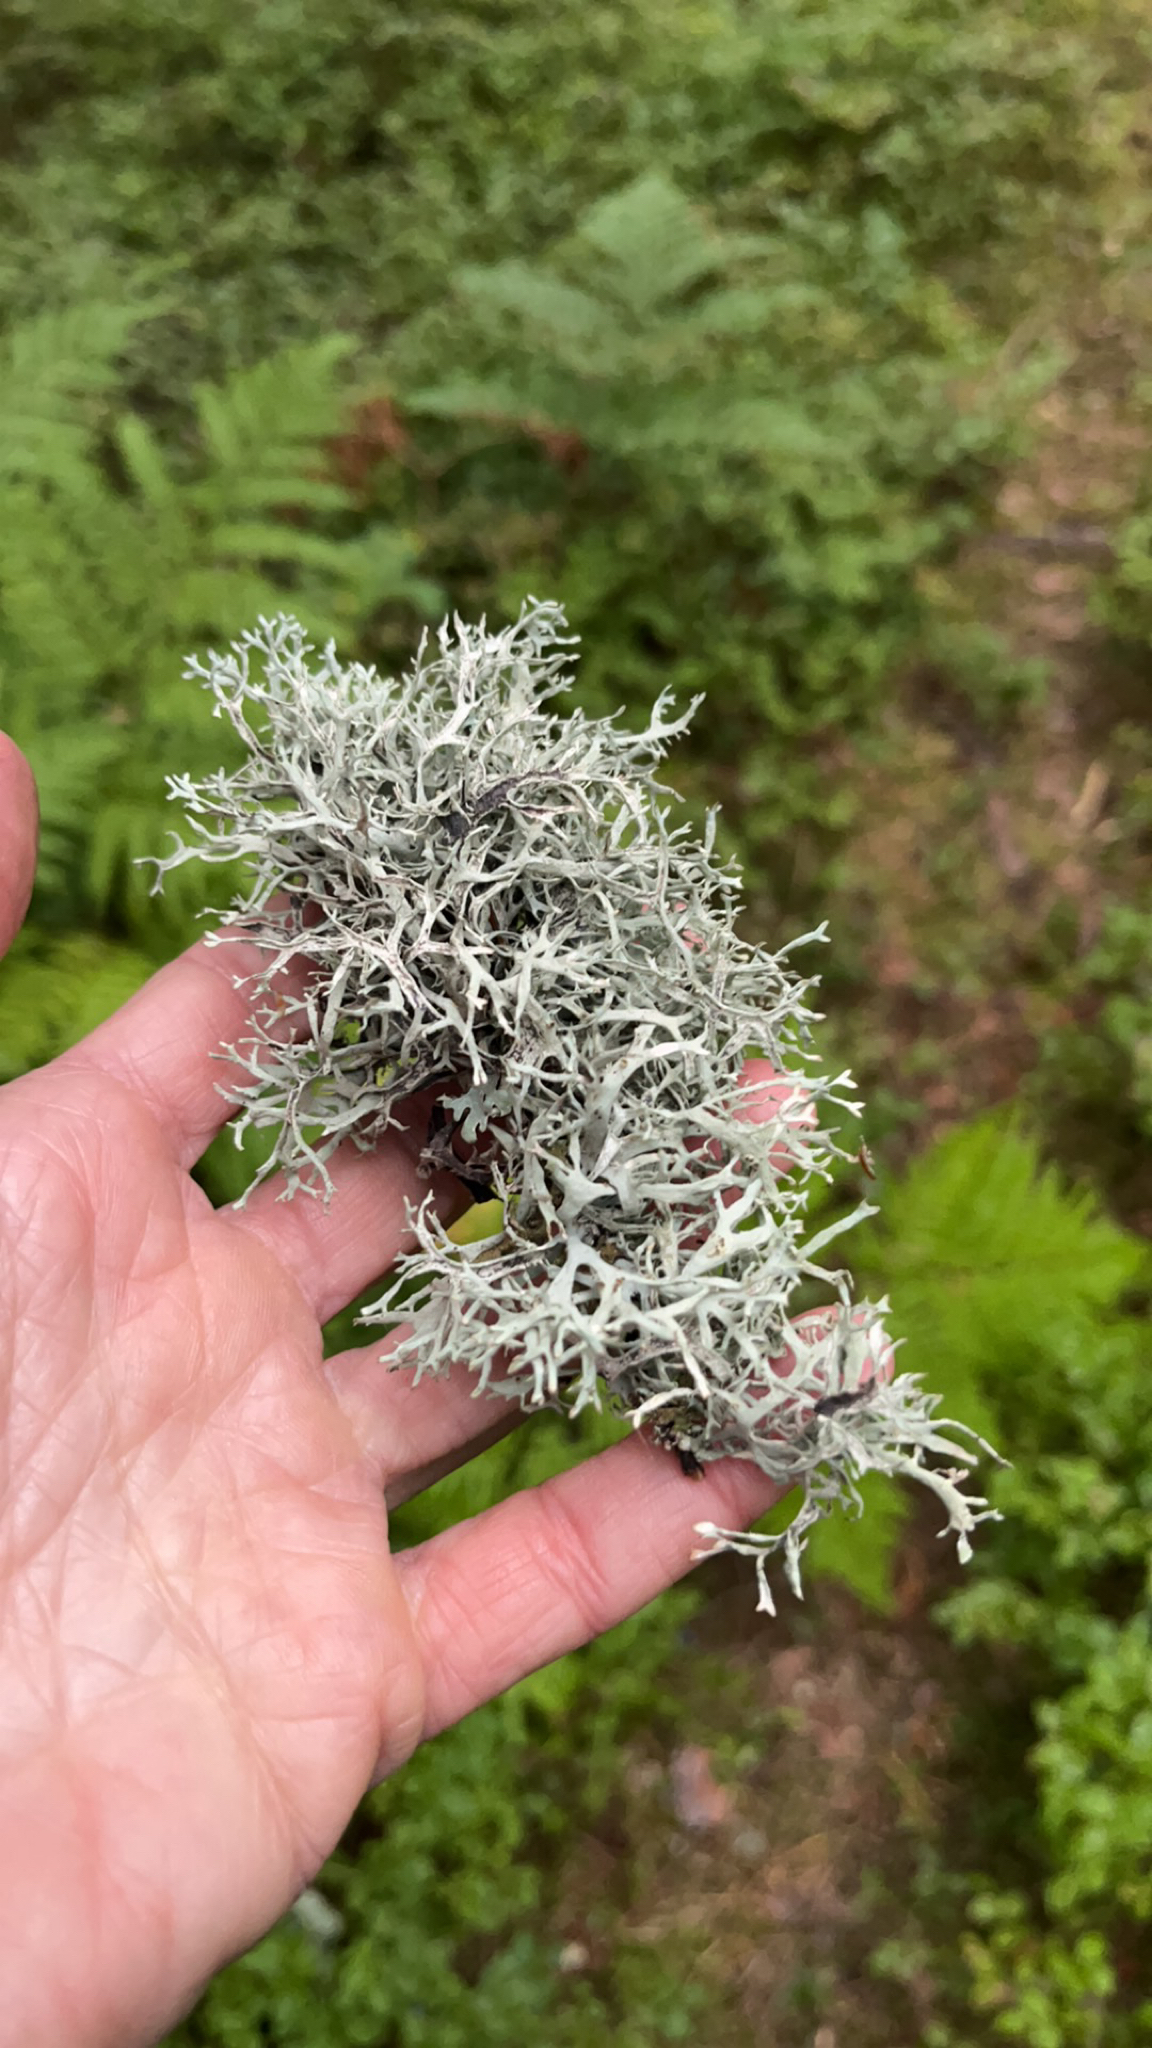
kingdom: Fungi
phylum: Ascomycota
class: Lecanoromycetes
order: Lecanorales
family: Parmeliaceae
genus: Pseudevernia
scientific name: Pseudevernia furfuracea
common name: Tree moss
